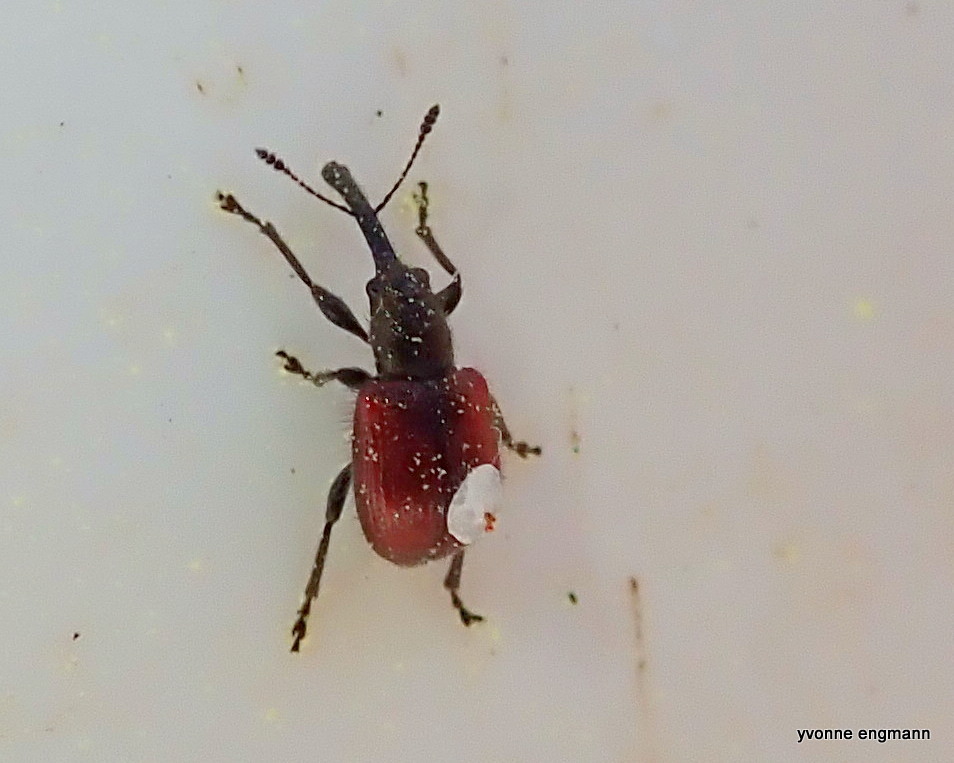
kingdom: Animalia
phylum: Arthropoda
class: Insecta
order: Coleoptera
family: Rhynchitidae
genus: Tatianaerhynchites
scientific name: Tatianaerhynchites aequatus
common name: Apple fruit rhynchites
